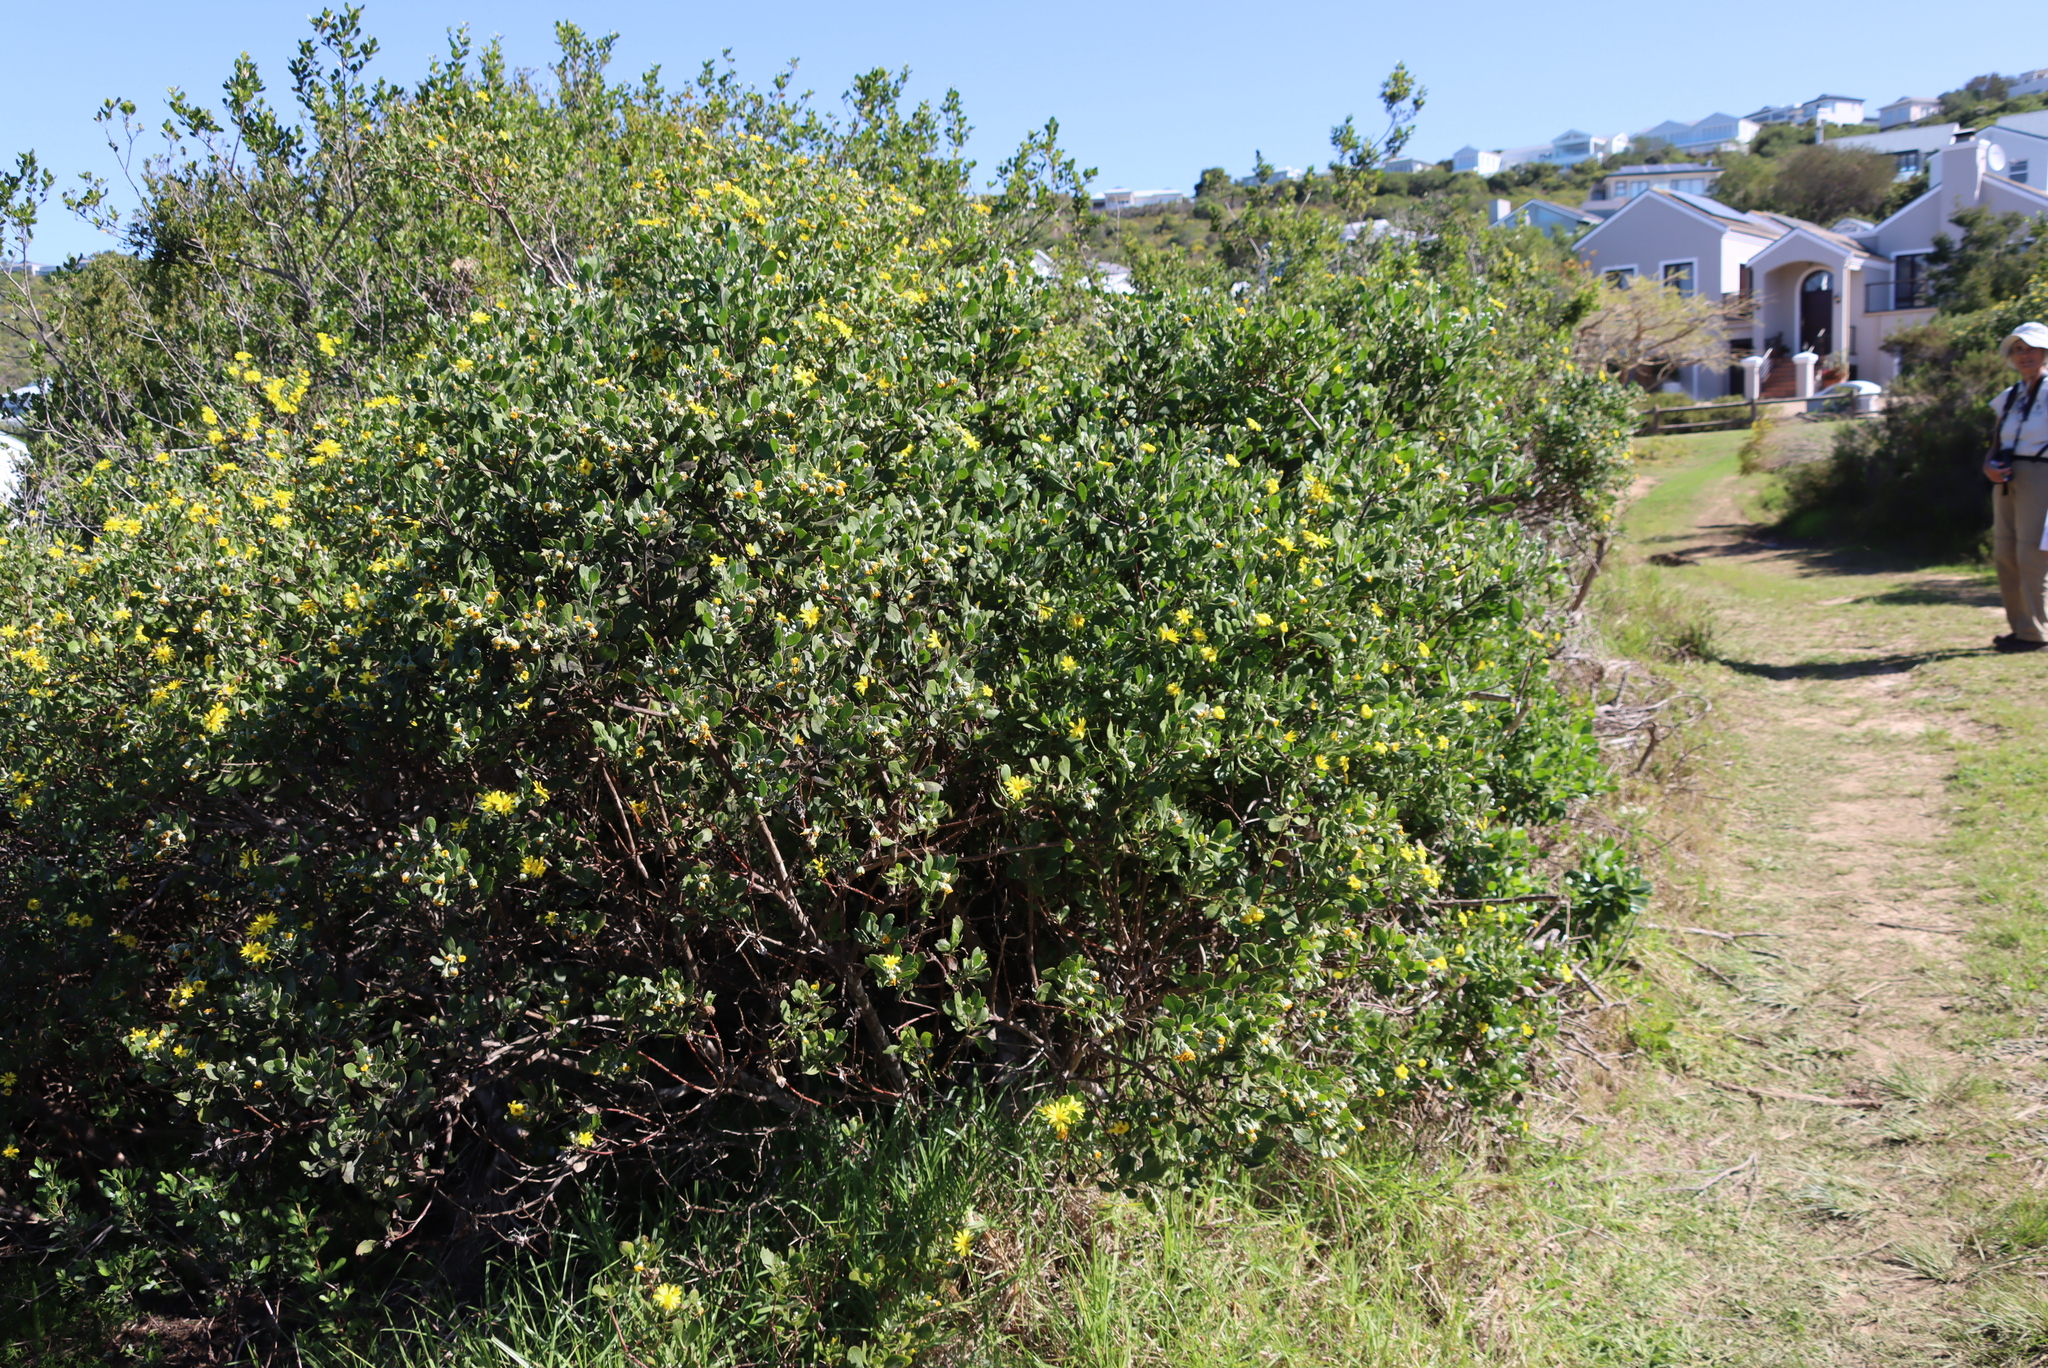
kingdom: Plantae
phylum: Tracheophyta
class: Magnoliopsida
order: Asterales
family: Asteraceae
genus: Osteospermum
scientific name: Osteospermum moniliferum
